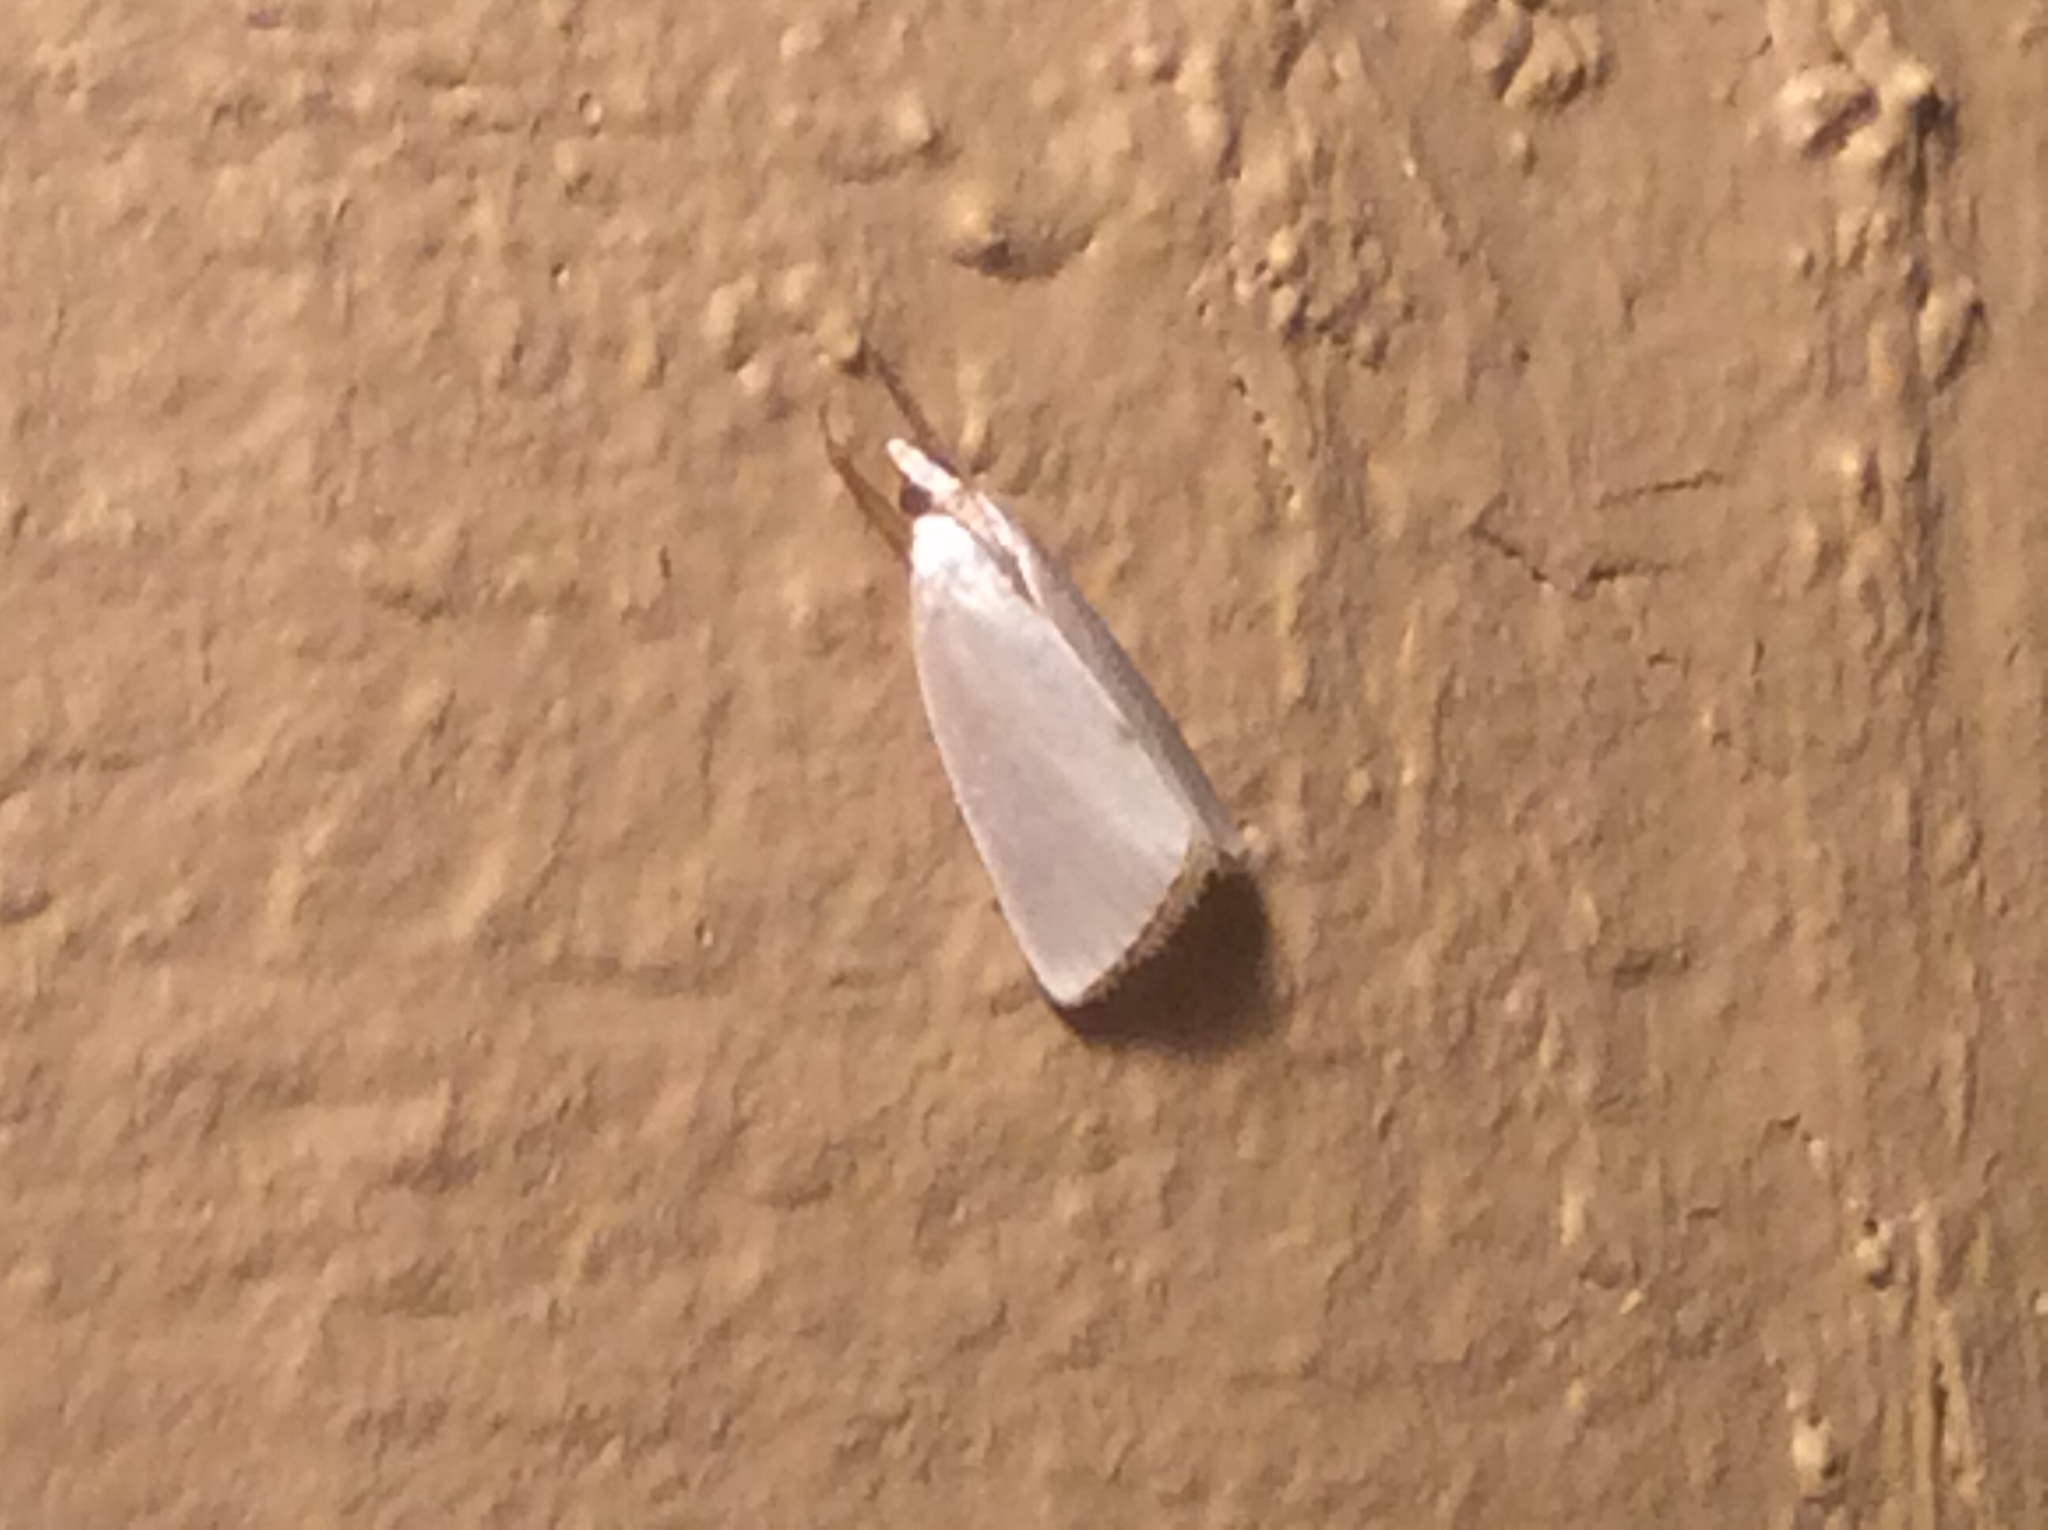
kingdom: Animalia
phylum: Arthropoda
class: Insecta
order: Lepidoptera
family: Crambidae
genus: Argyria
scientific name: Argyria nivalis
